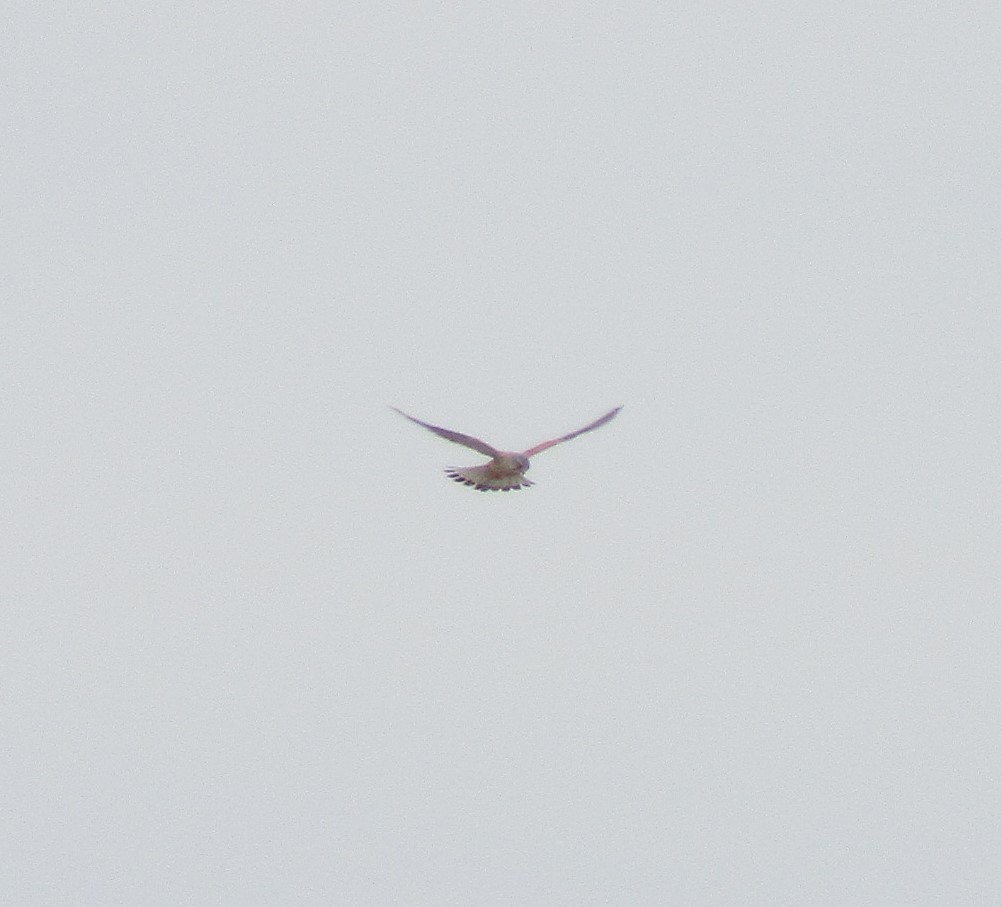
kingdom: Animalia
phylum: Chordata
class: Aves
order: Falconiformes
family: Falconidae
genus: Falco
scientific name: Falco tinnunculus
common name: Common kestrel
